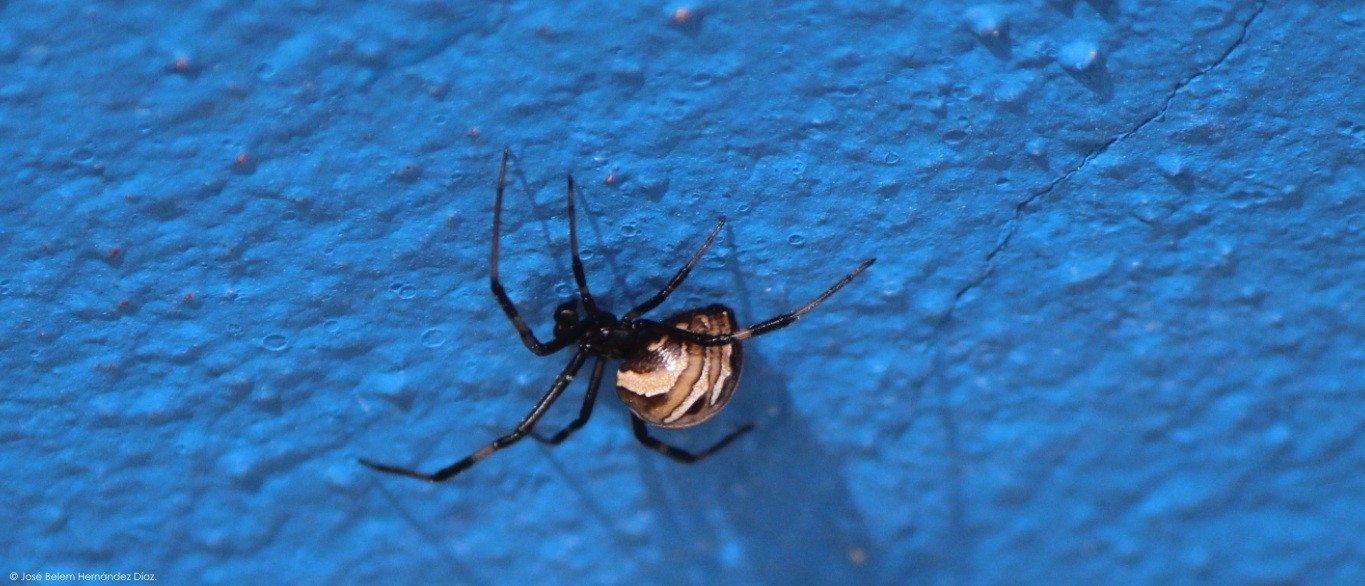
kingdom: Animalia
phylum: Arthropoda
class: Arachnida
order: Araneae
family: Theridiidae
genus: Latrodectus
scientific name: Latrodectus geometricus
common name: Brown widow spider
